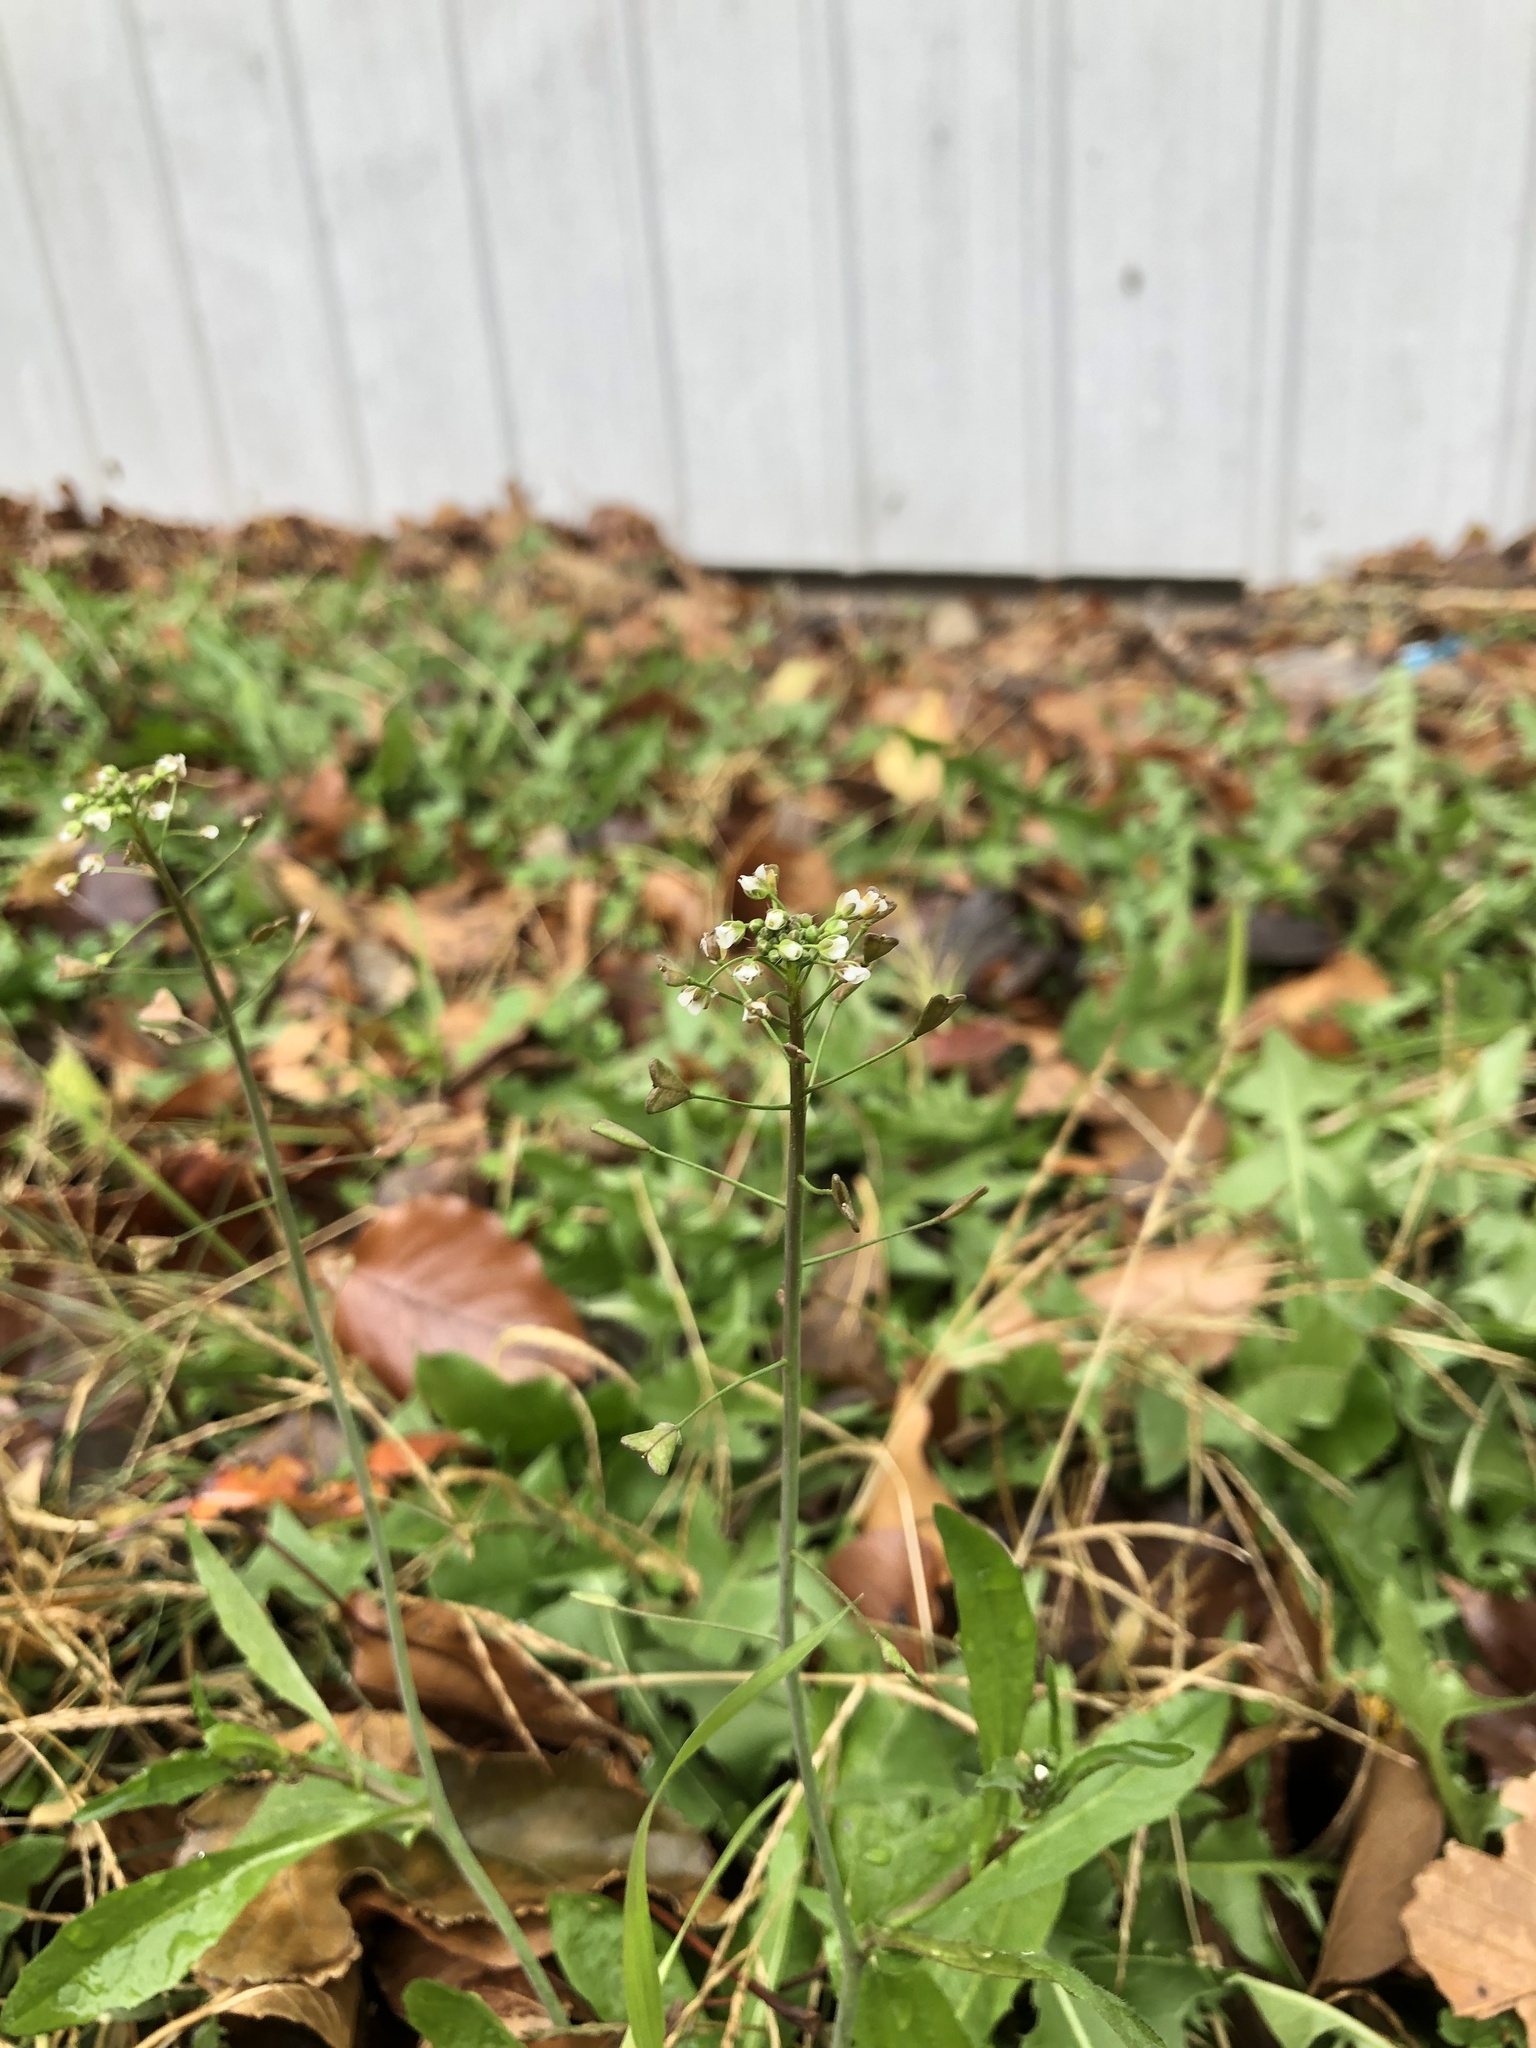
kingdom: Plantae
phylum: Tracheophyta
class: Magnoliopsida
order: Brassicales
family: Brassicaceae
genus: Capsella
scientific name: Capsella bursa-pastoris
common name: Shepherd's purse
